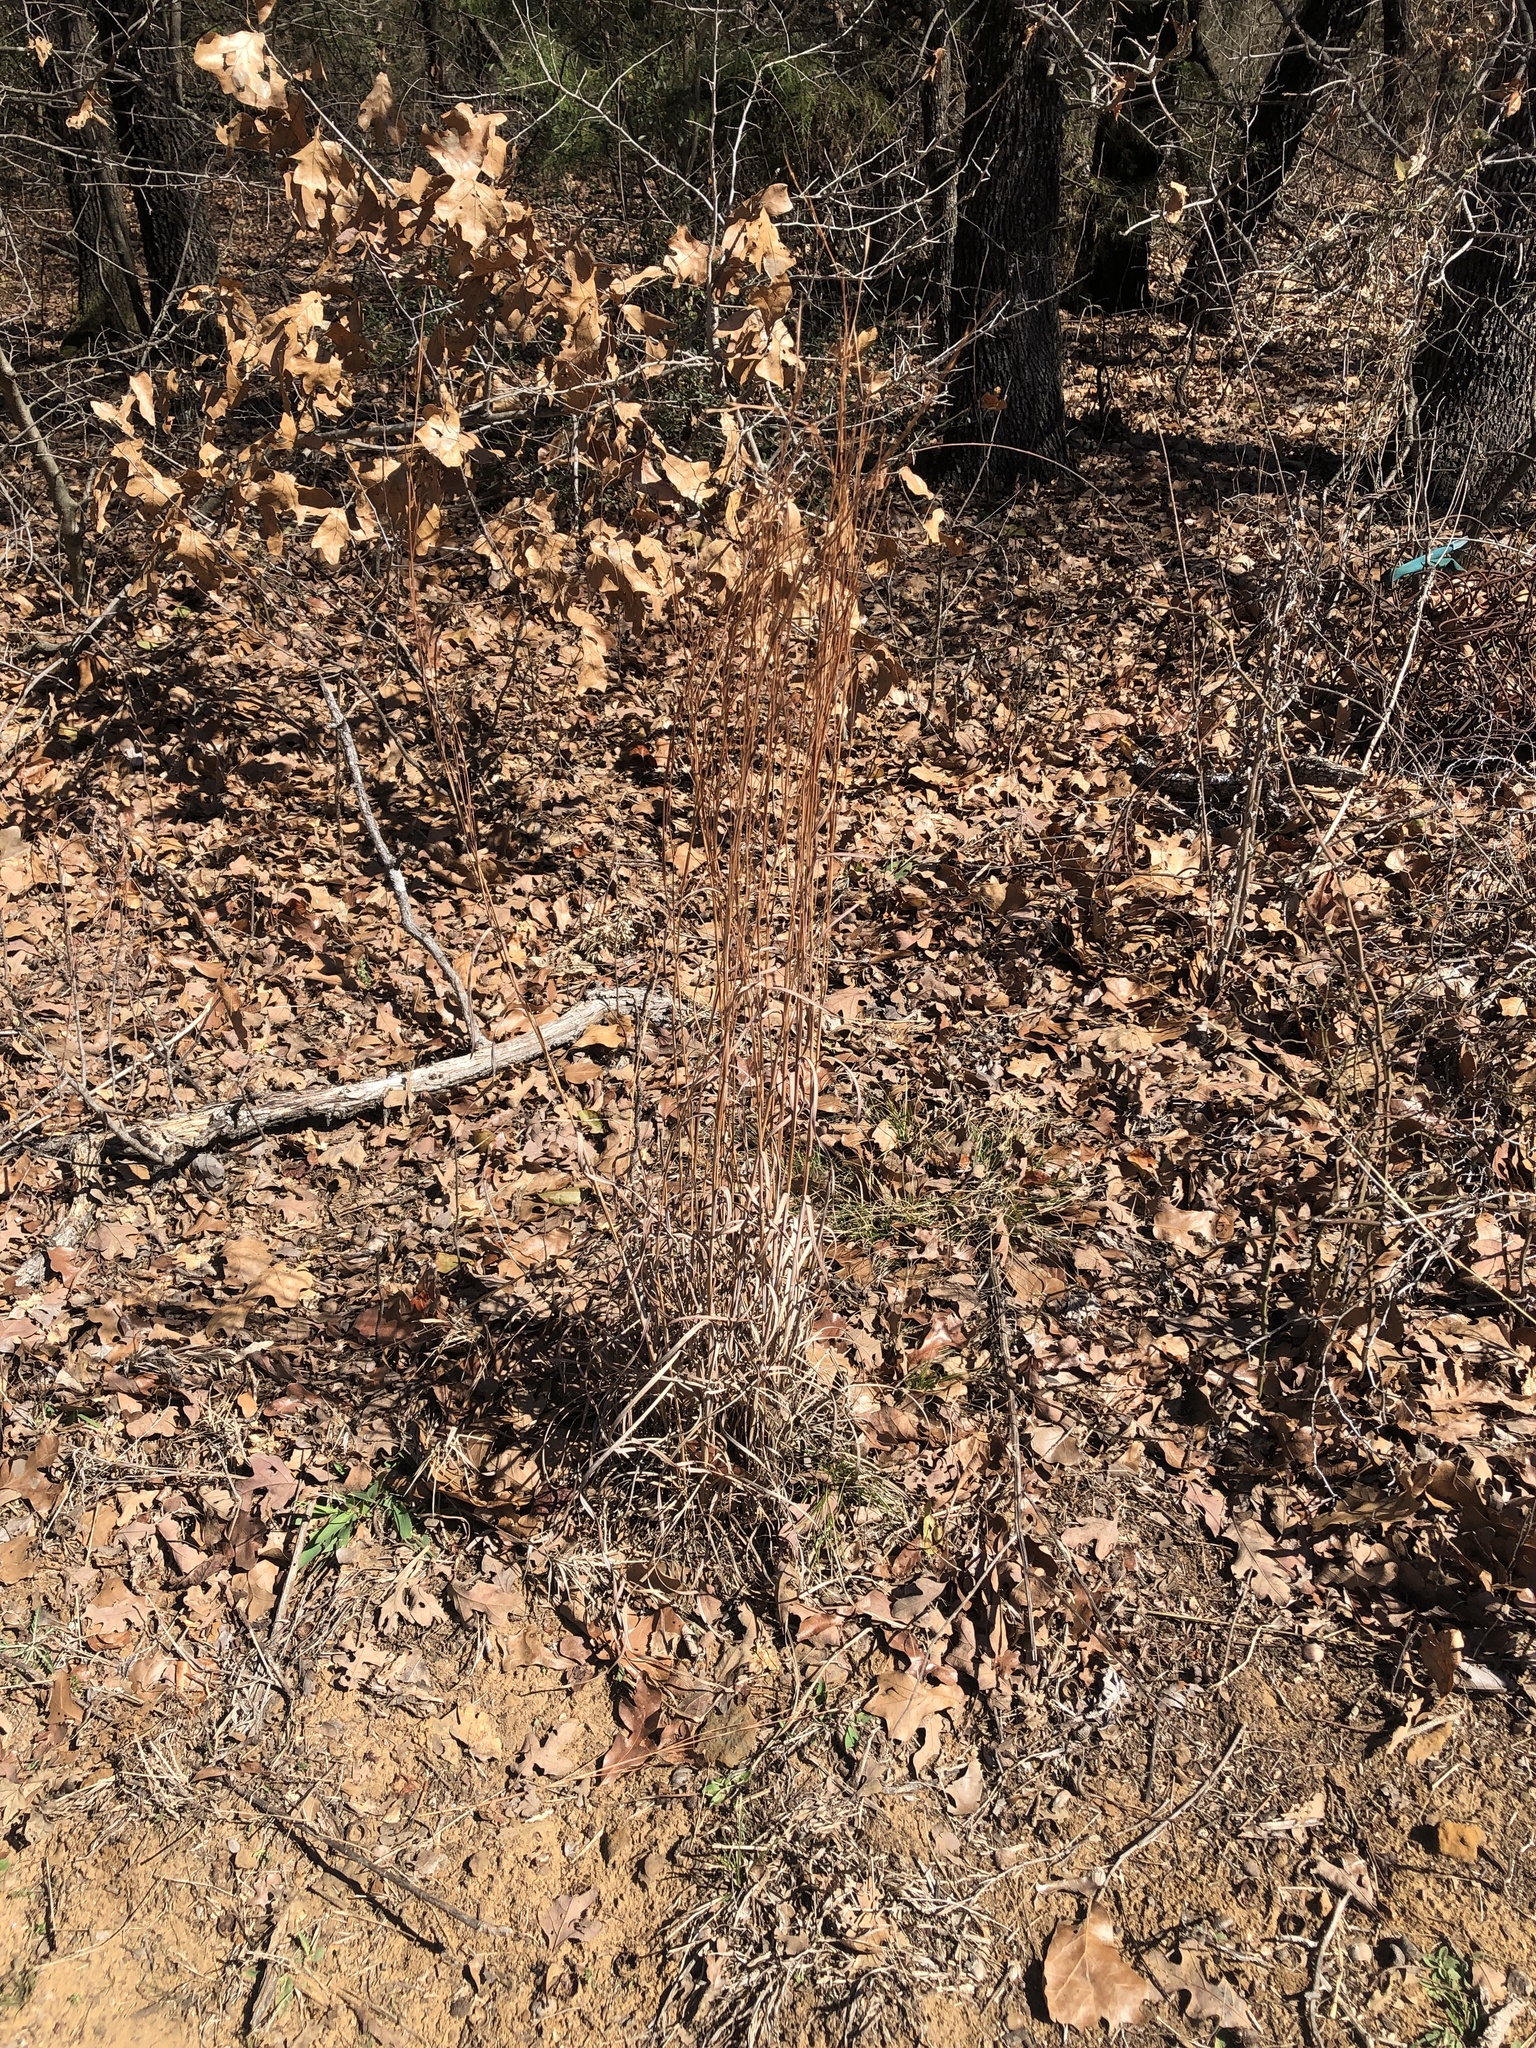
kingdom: Plantae
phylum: Tracheophyta
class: Liliopsida
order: Poales
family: Poaceae
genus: Schizachyrium
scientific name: Schizachyrium scoparium
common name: Little bluestem
